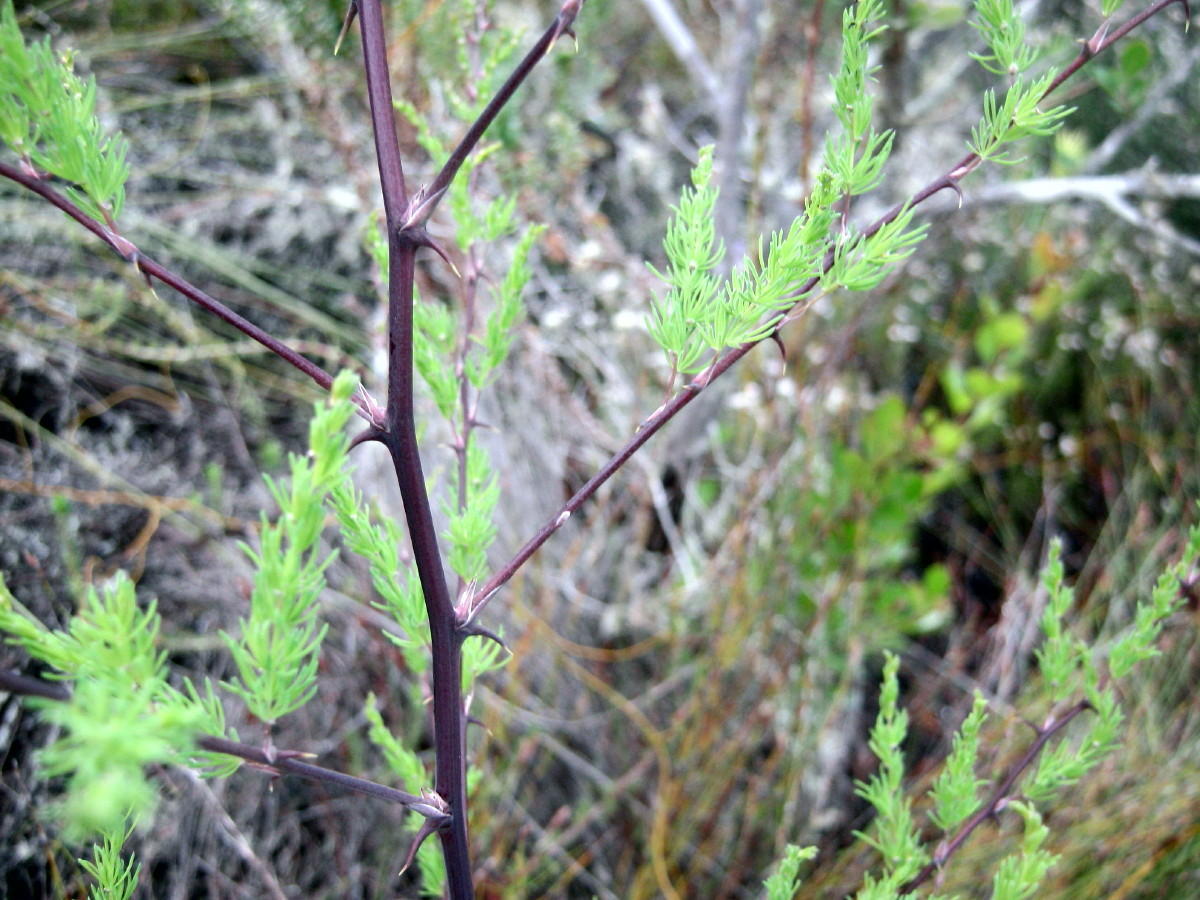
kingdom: Plantae
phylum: Tracheophyta
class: Liliopsida
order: Asparagales
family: Asparagaceae
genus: Asparagus
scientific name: Asparagus rubicundus
